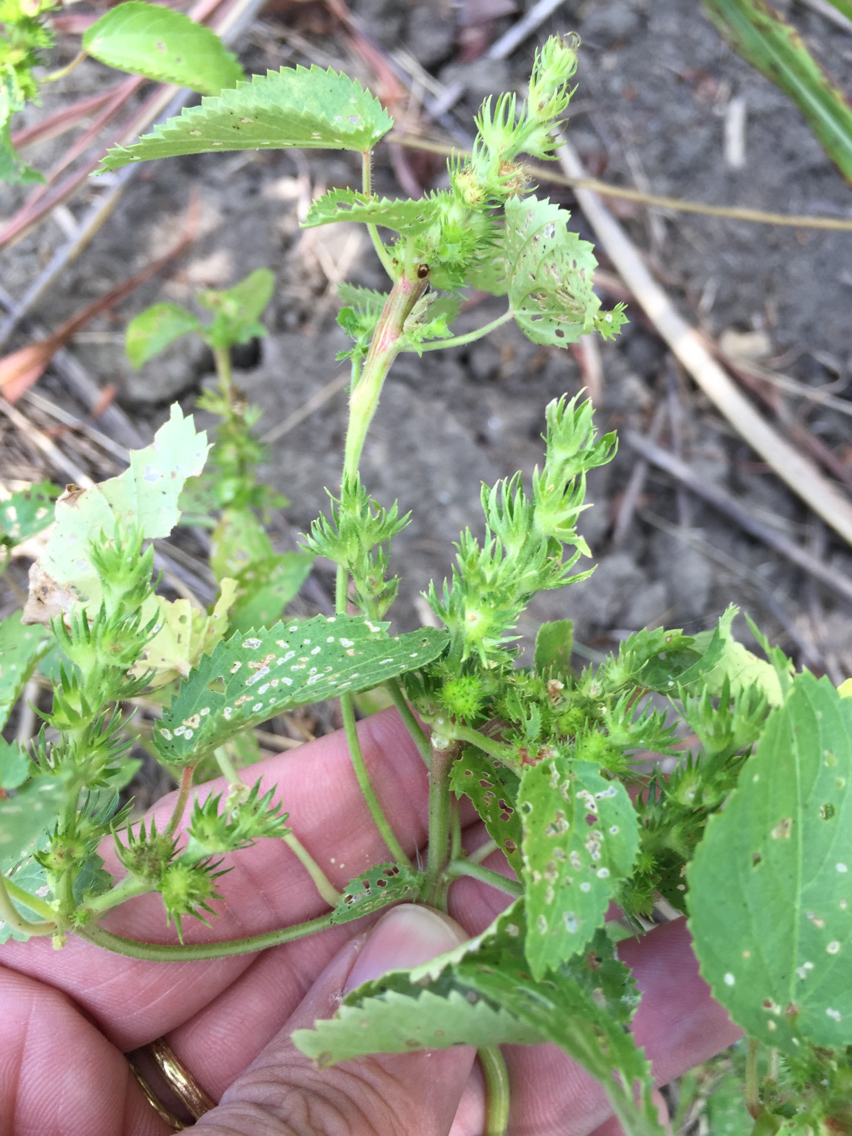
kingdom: Plantae
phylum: Tracheophyta
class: Magnoliopsida
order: Malpighiales
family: Euphorbiaceae
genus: Acalypha
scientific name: Acalypha ostryifolia
